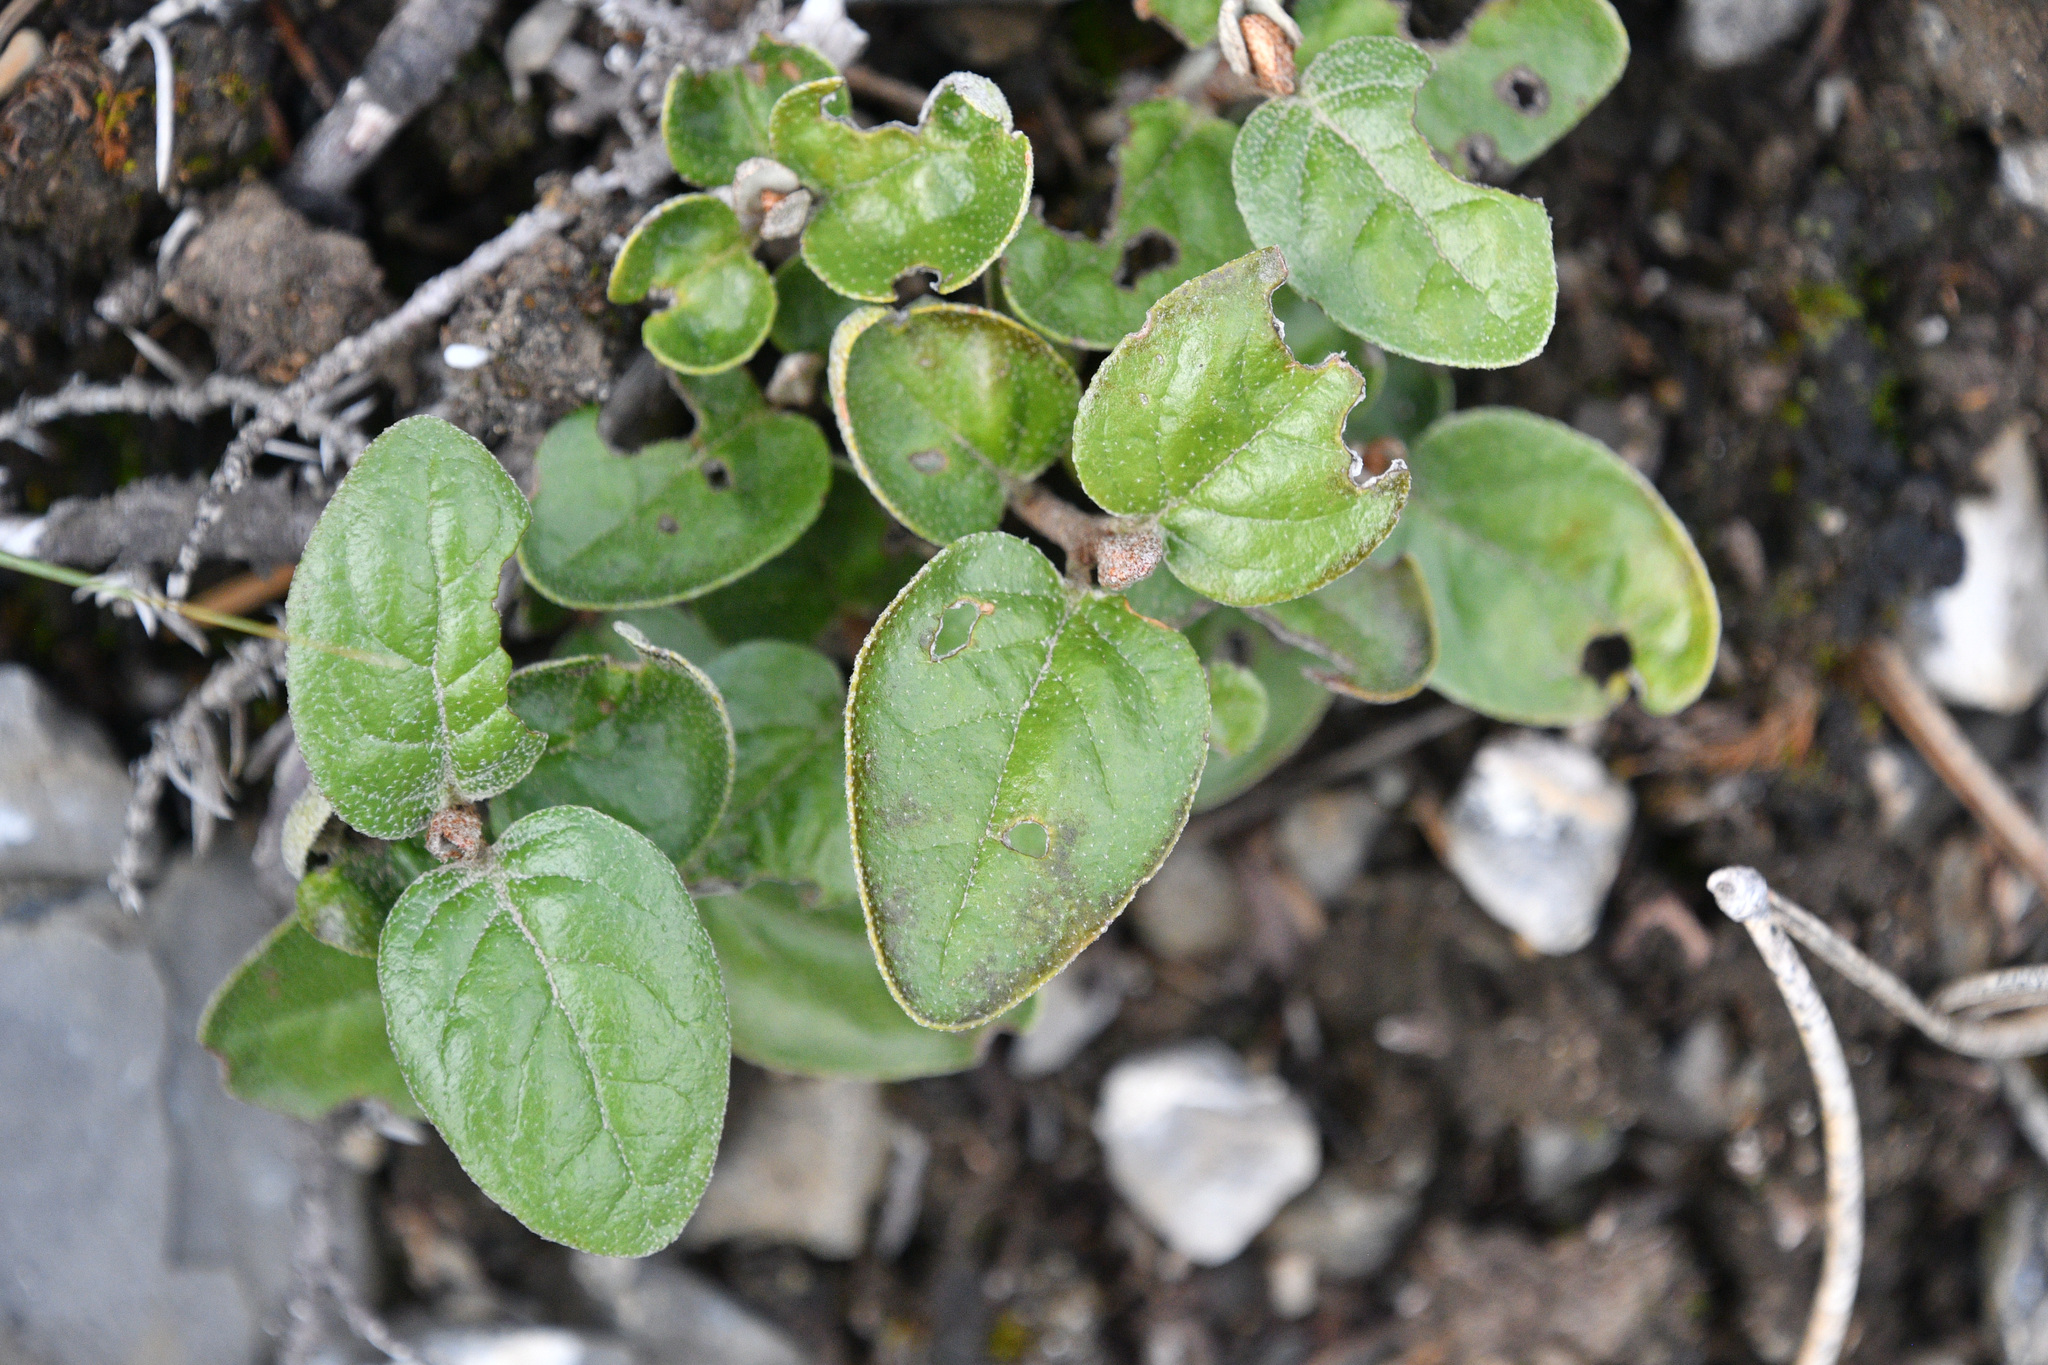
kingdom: Plantae
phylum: Tracheophyta
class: Magnoliopsida
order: Rosales
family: Elaeagnaceae
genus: Shepherdia
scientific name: Shepherdia canadensis
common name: Soapberry
